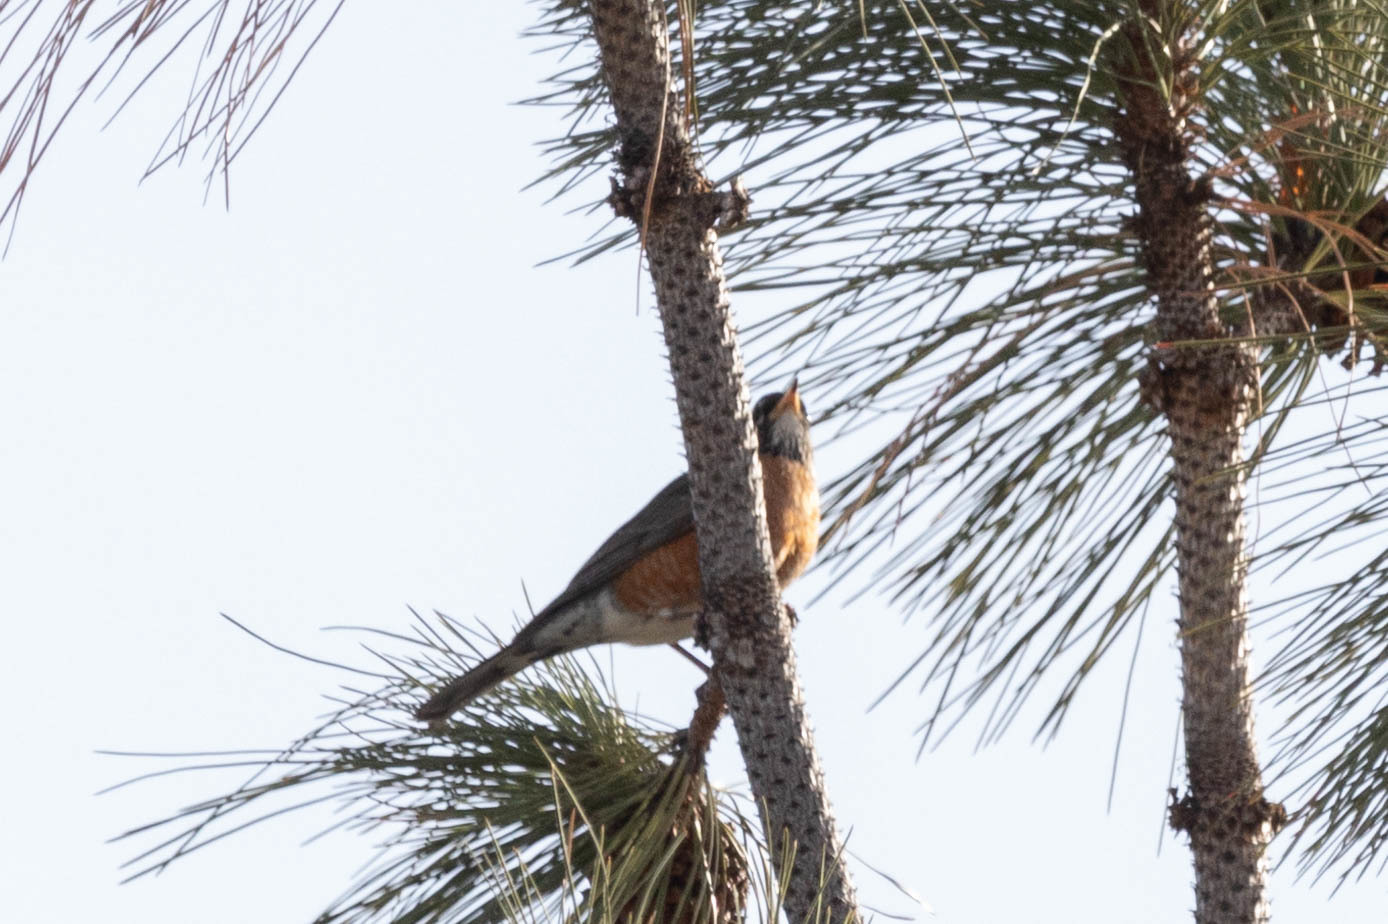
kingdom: Animalia
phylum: Chordata
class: Aves
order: Passeriformes
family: Turdidae
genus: Turdus
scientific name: Turdus migratorius
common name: American robin
